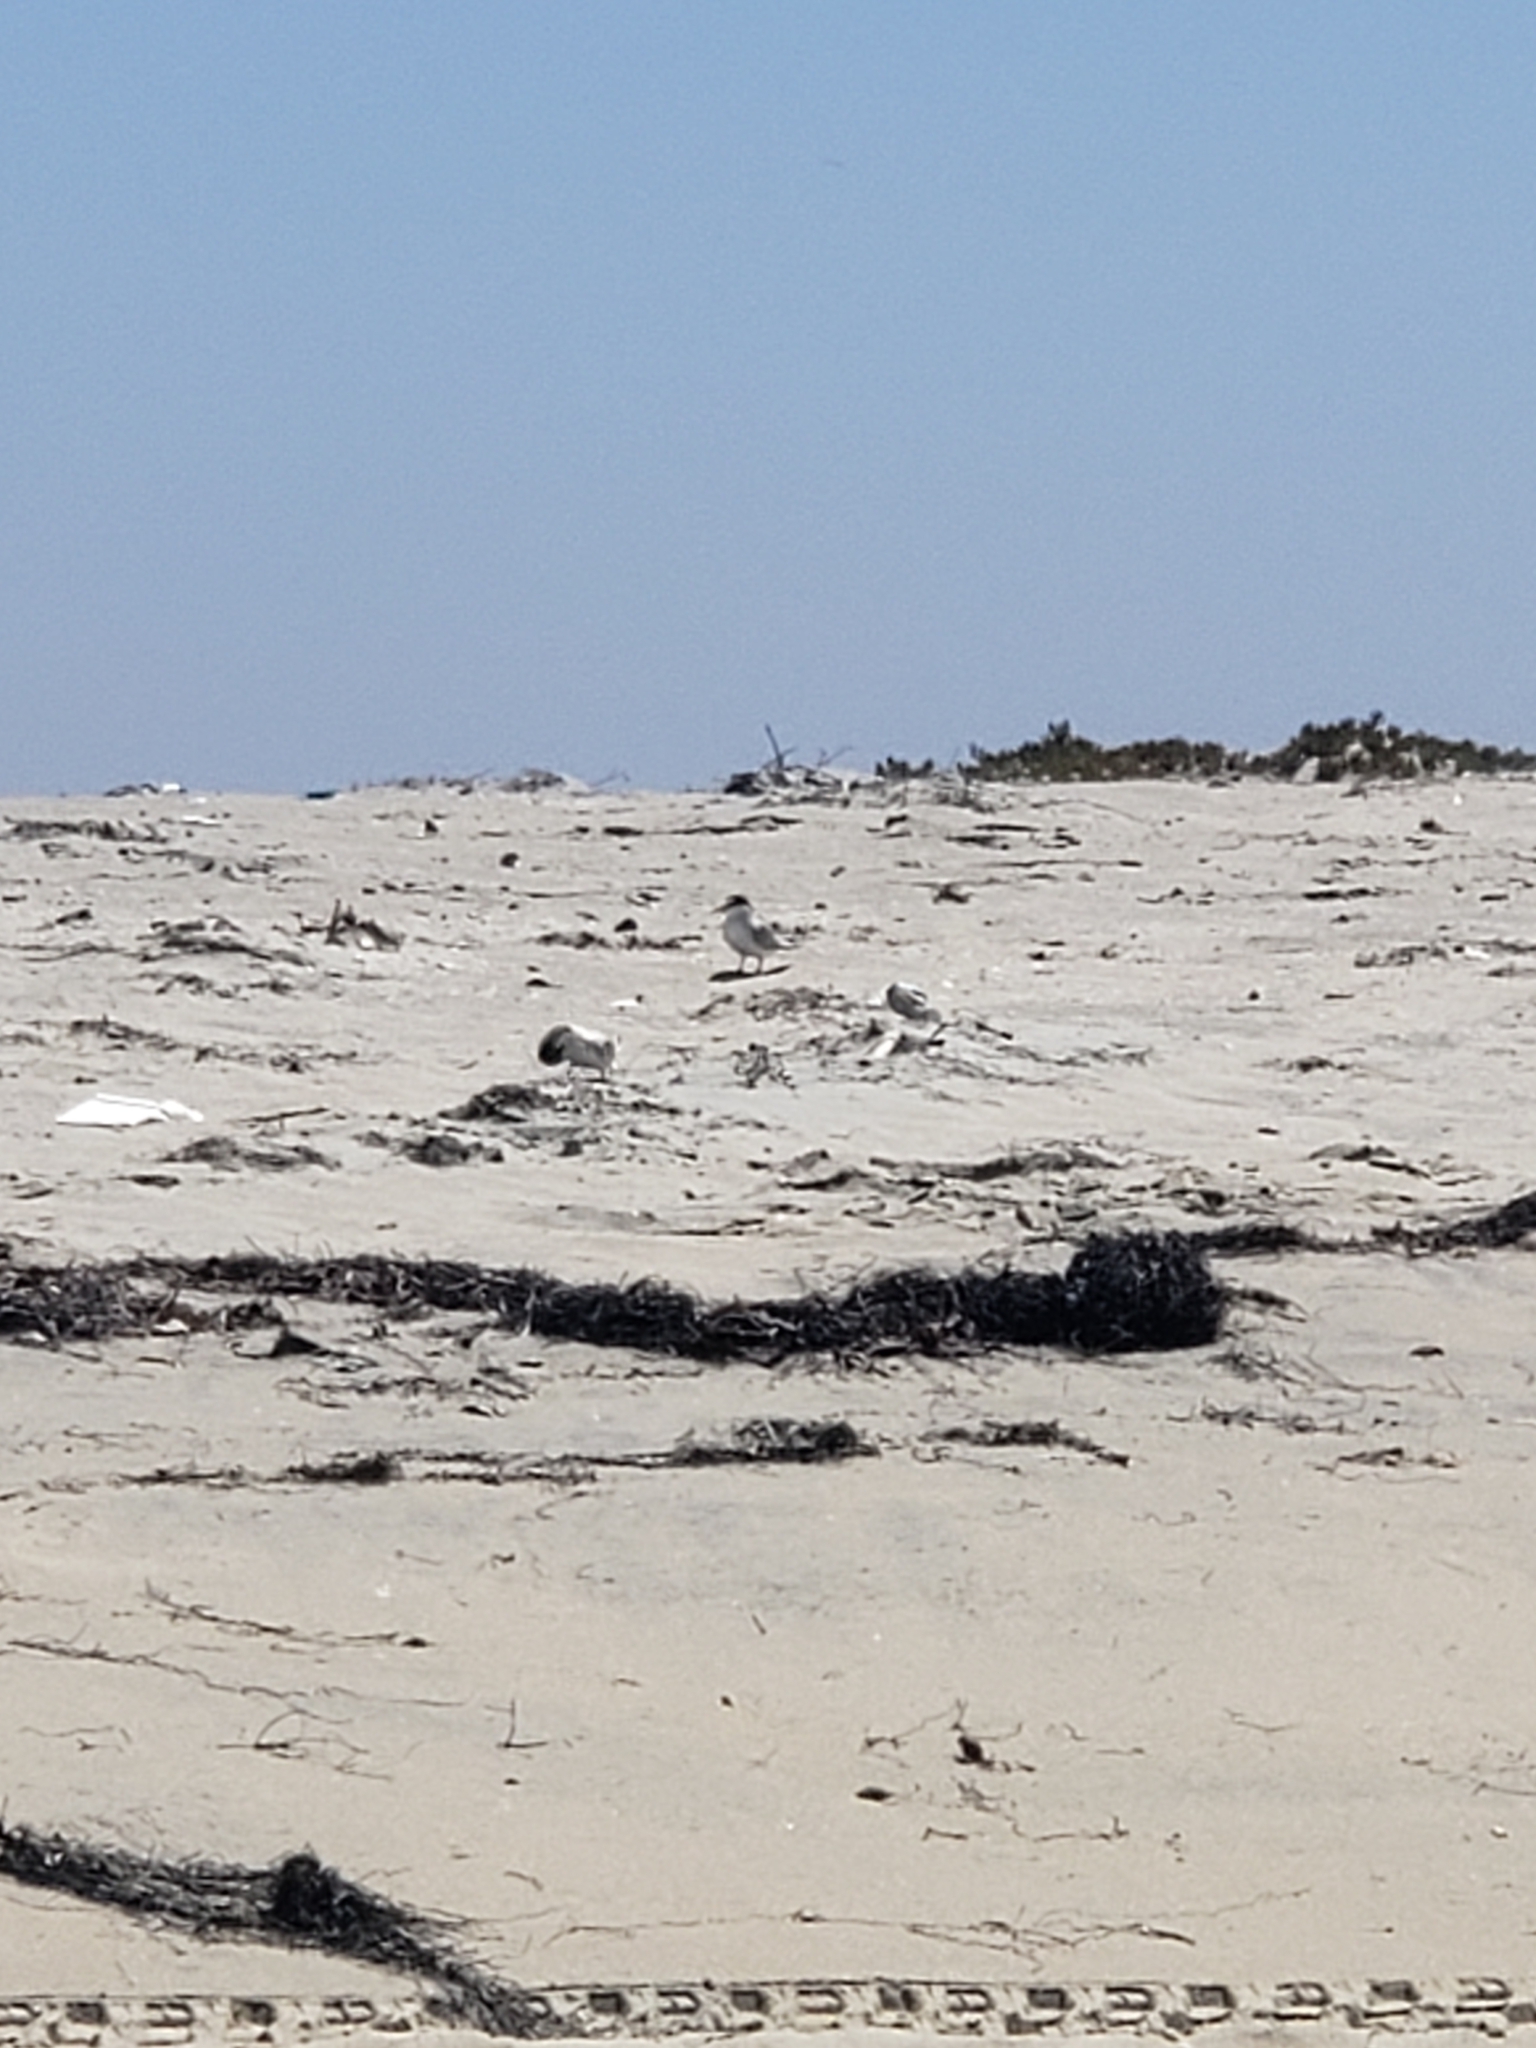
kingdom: Animalia
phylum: Chordata
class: Aves
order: Charadriiformes
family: Laridae
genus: Sternula
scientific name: Sternula antillarum
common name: Least tern
